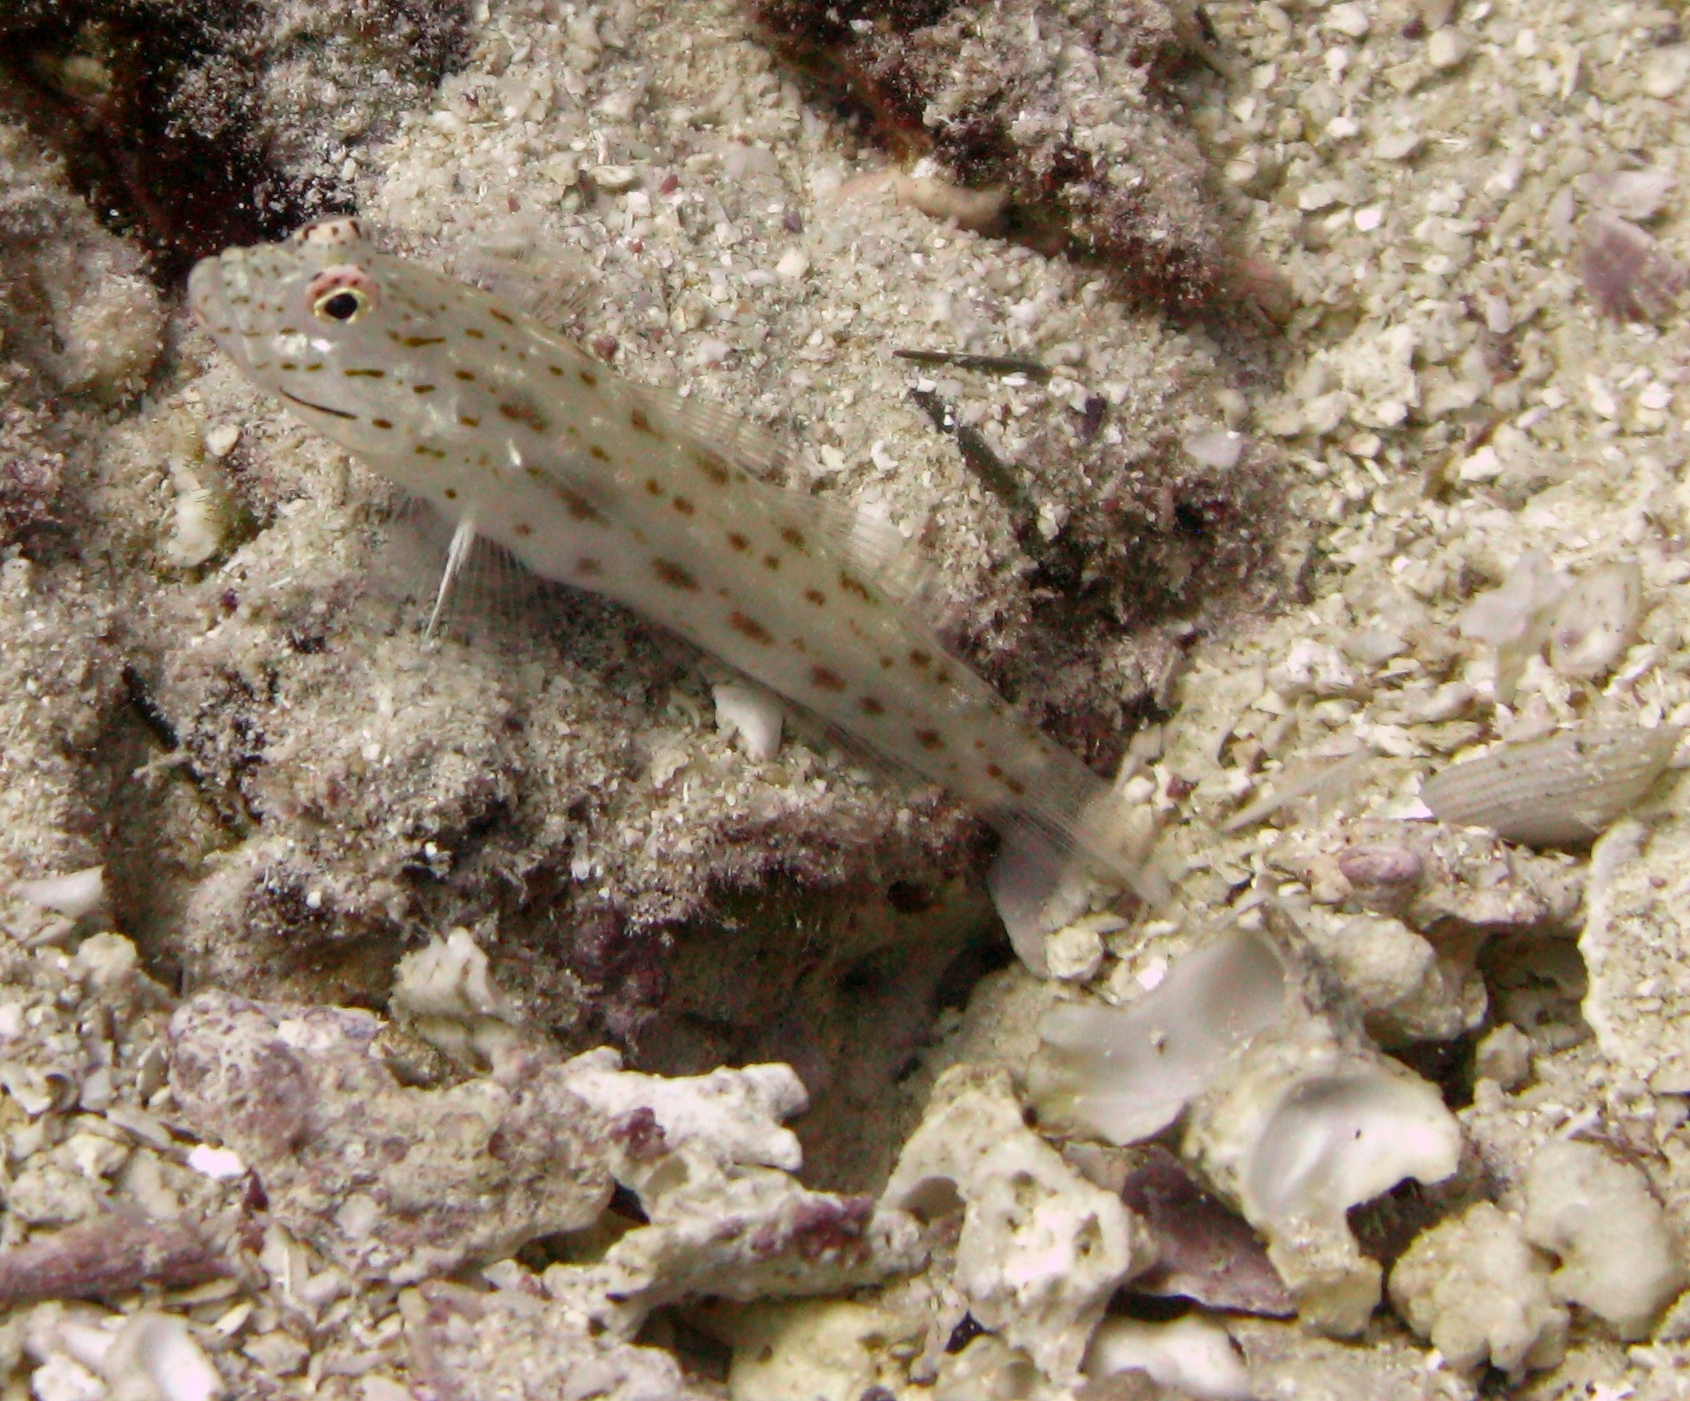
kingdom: Animalia
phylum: Chordata
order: Perciformes
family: Gobiidae
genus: Ctenogobiops
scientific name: Ctenogobiops crocineus
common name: Silverspot shrimpgoby
